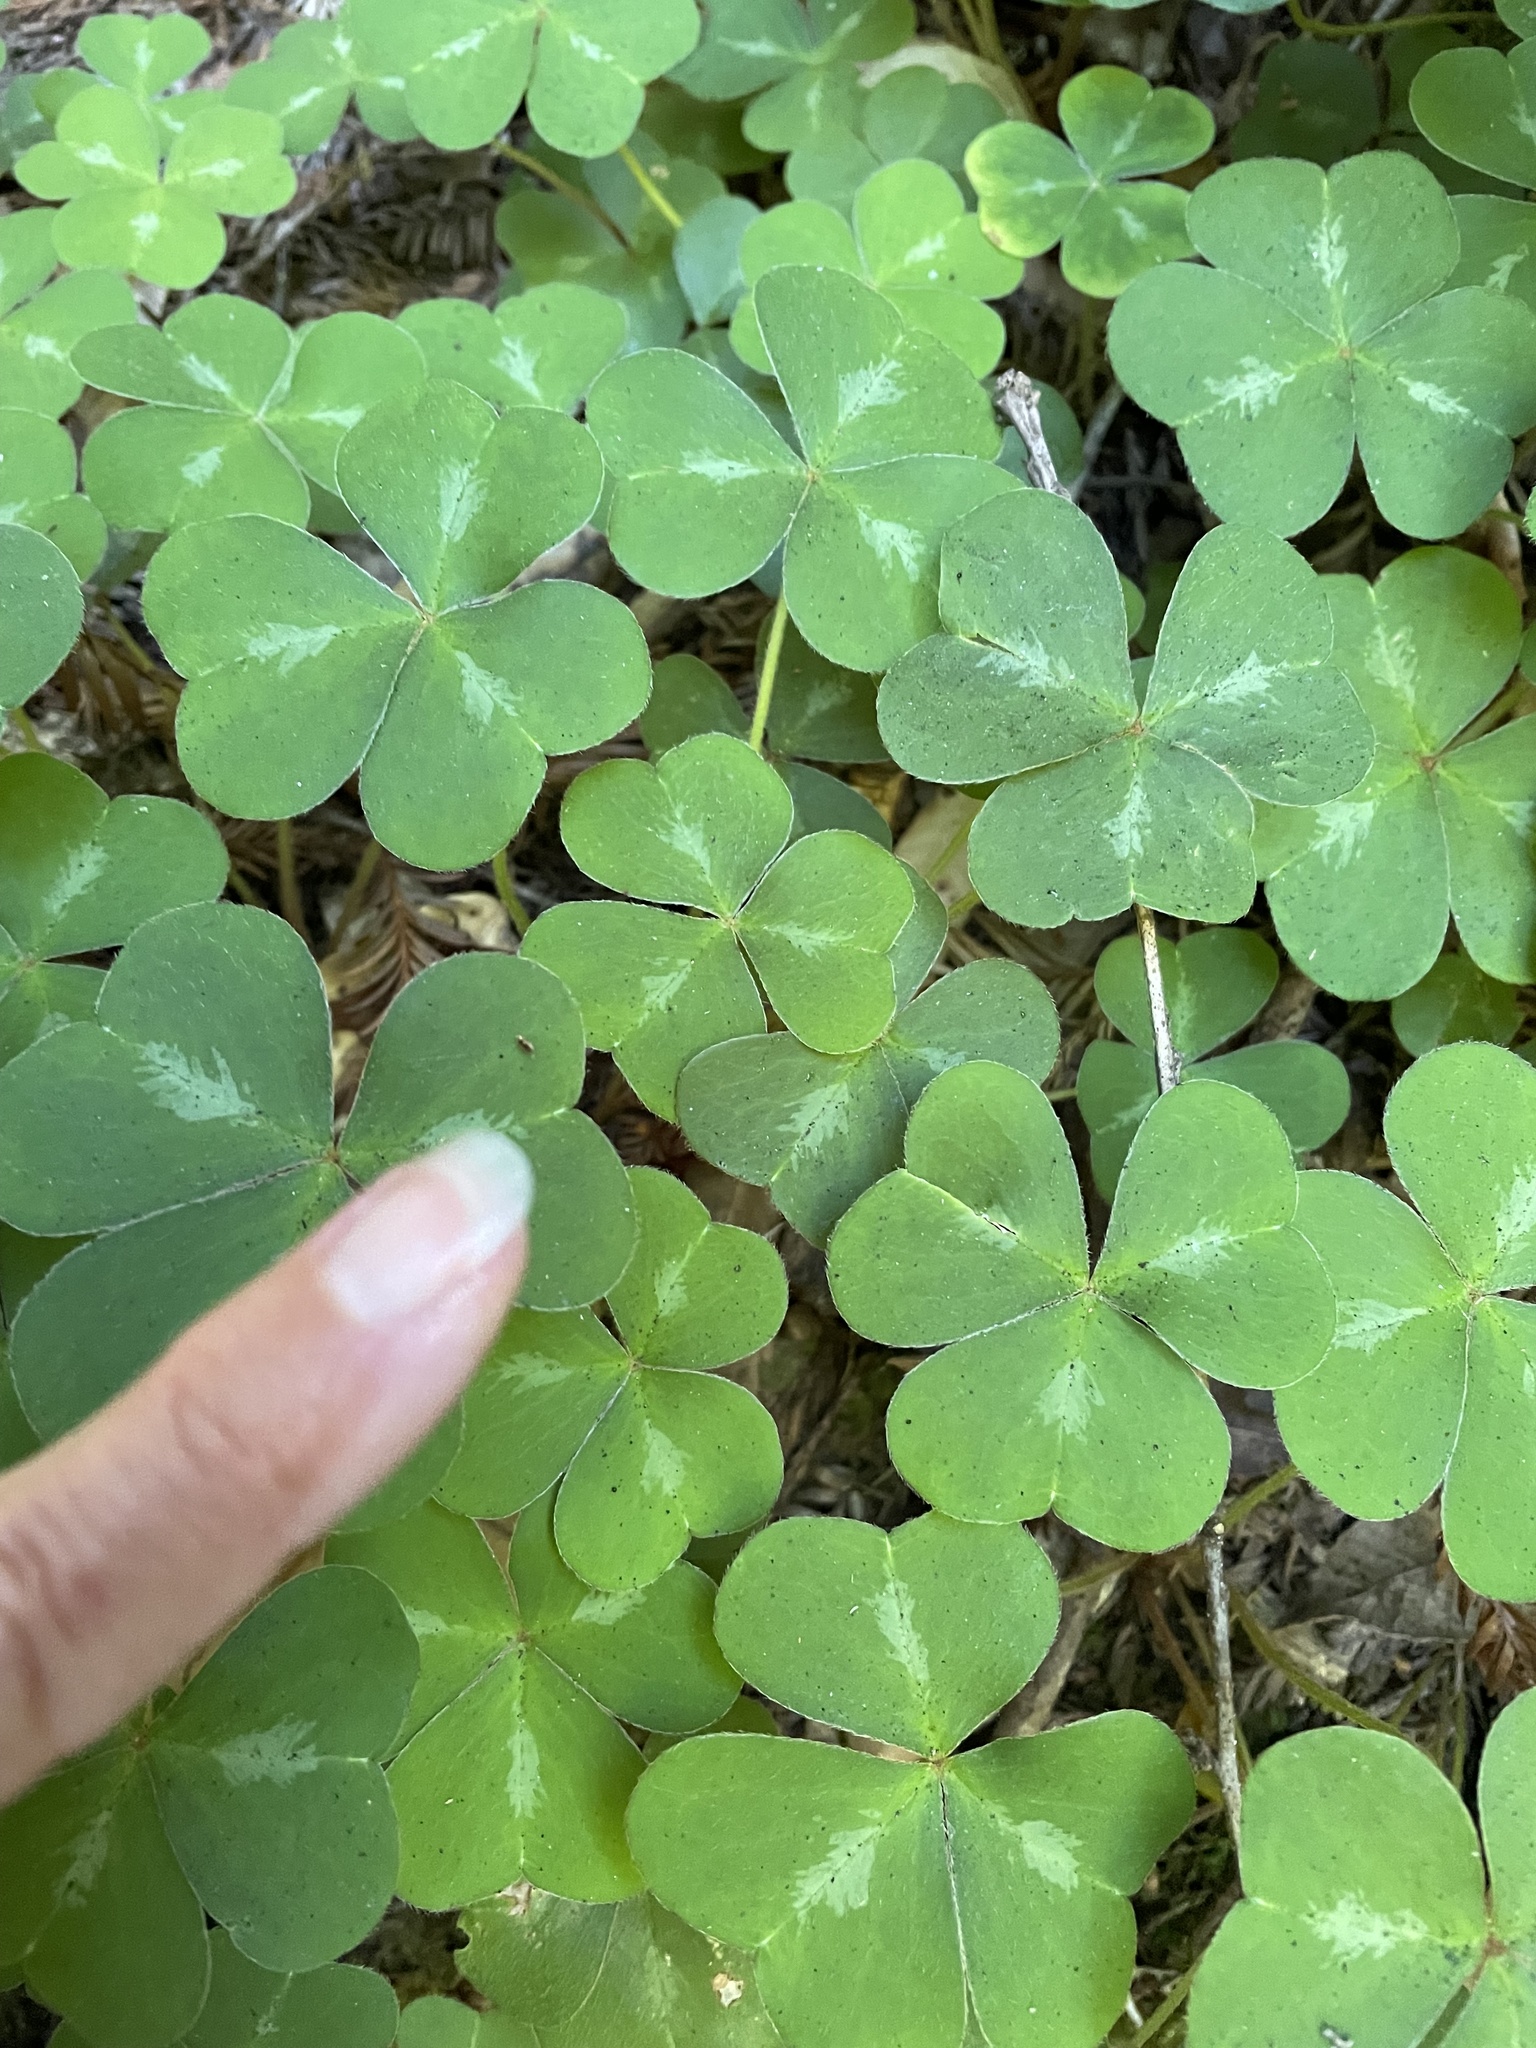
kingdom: Plantae
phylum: Tracheophyta
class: Magnoliopsida
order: Oxalidales
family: Oxalidaceae
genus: Oxalis
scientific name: Oxalis oregana
